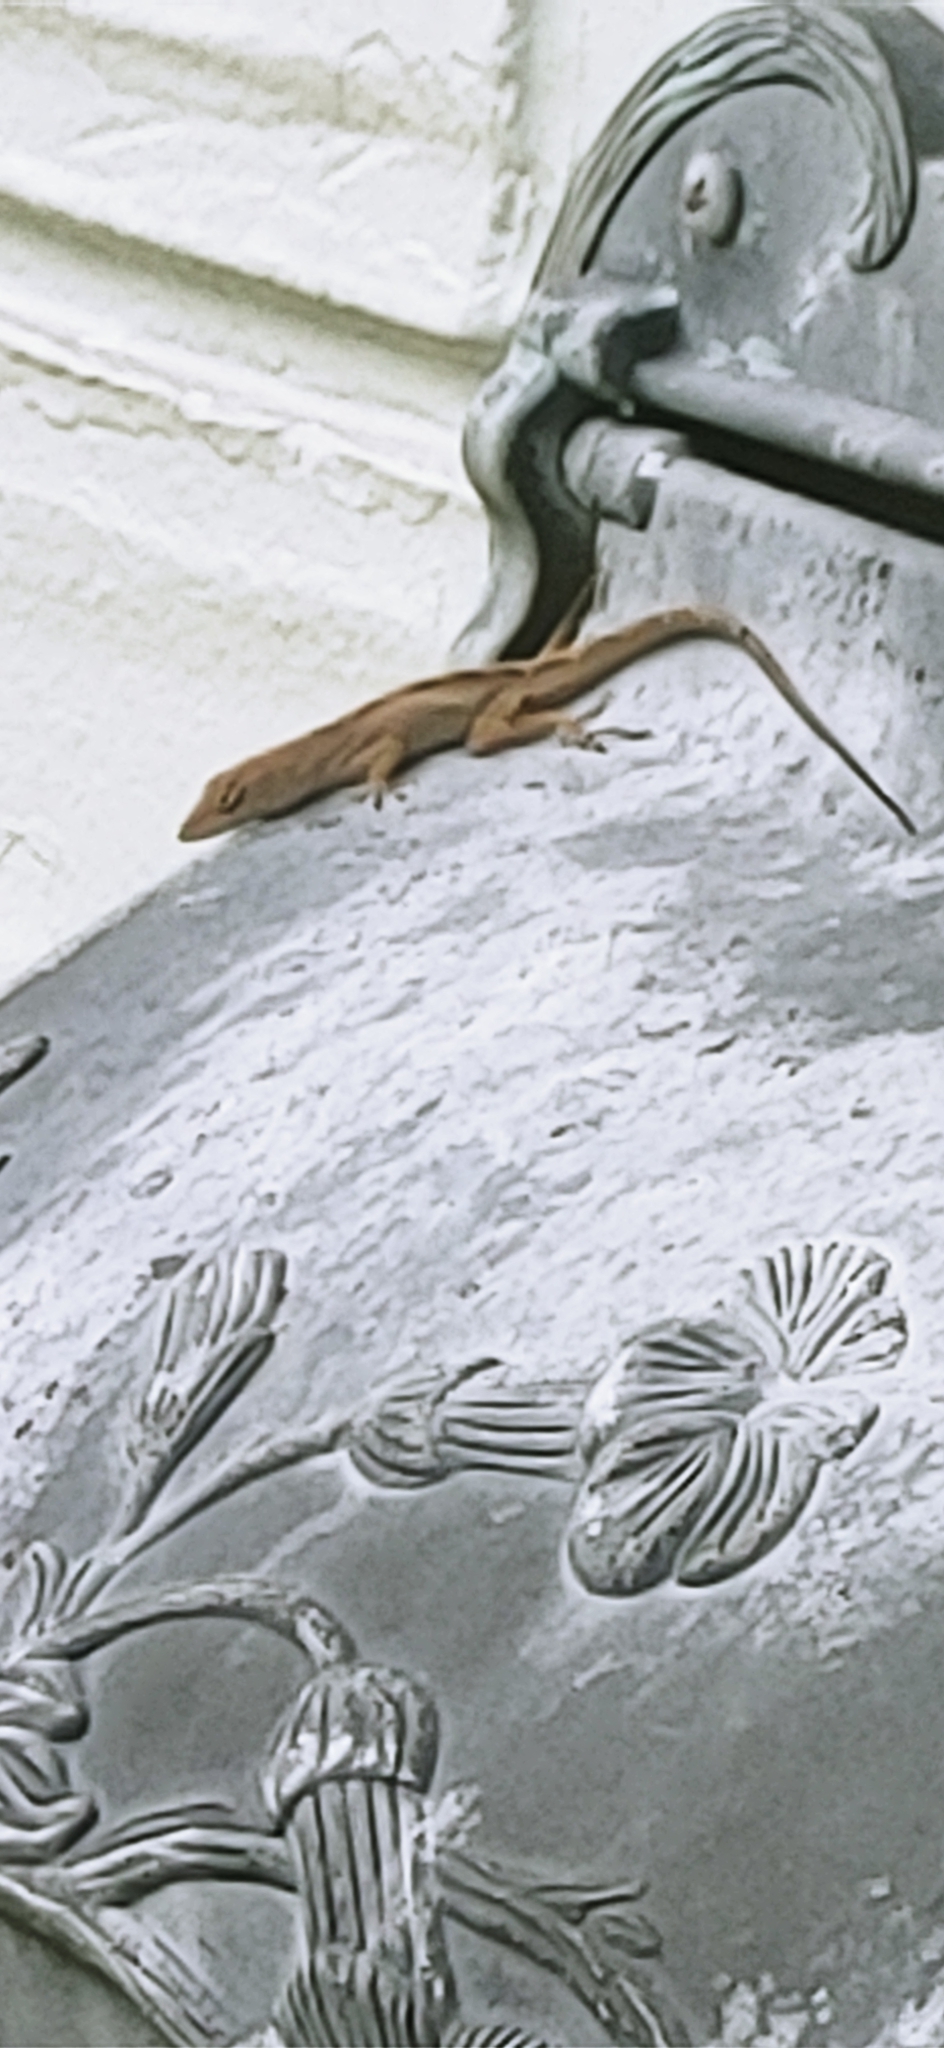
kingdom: Animalia
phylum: Chordata
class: Squamata
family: Dactyloidae
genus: Anolis
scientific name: Anolis sagrei
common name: Brown anole
